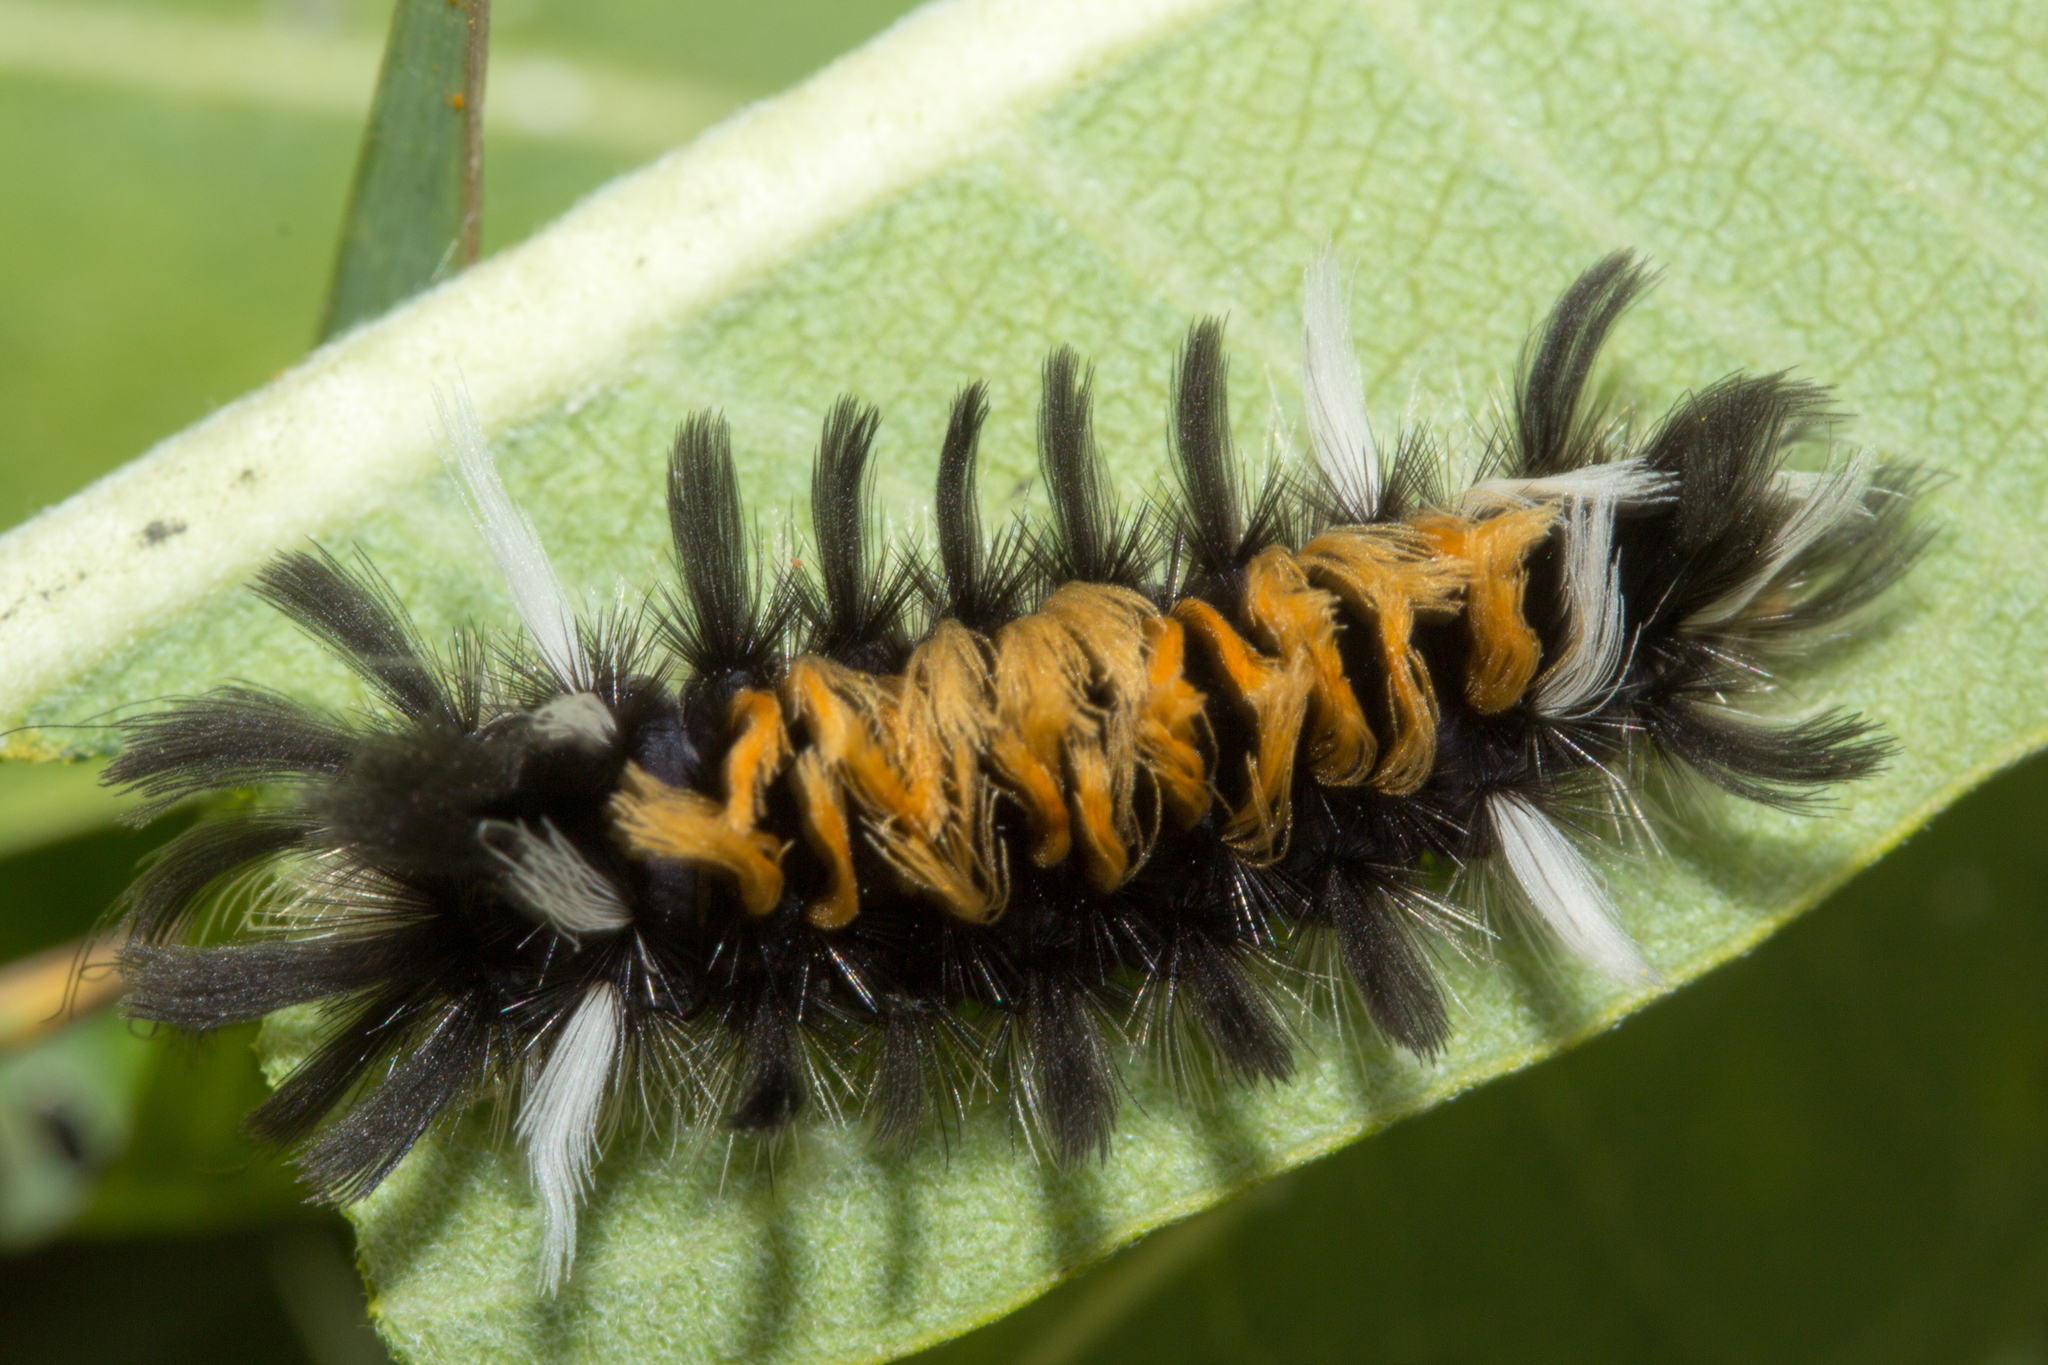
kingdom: Animalia
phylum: Arthropoda
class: Insecta
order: Lepidoptera
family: Erebidae
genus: Euchaetes
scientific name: Euchaetes egle
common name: Milkweed tussock moth
